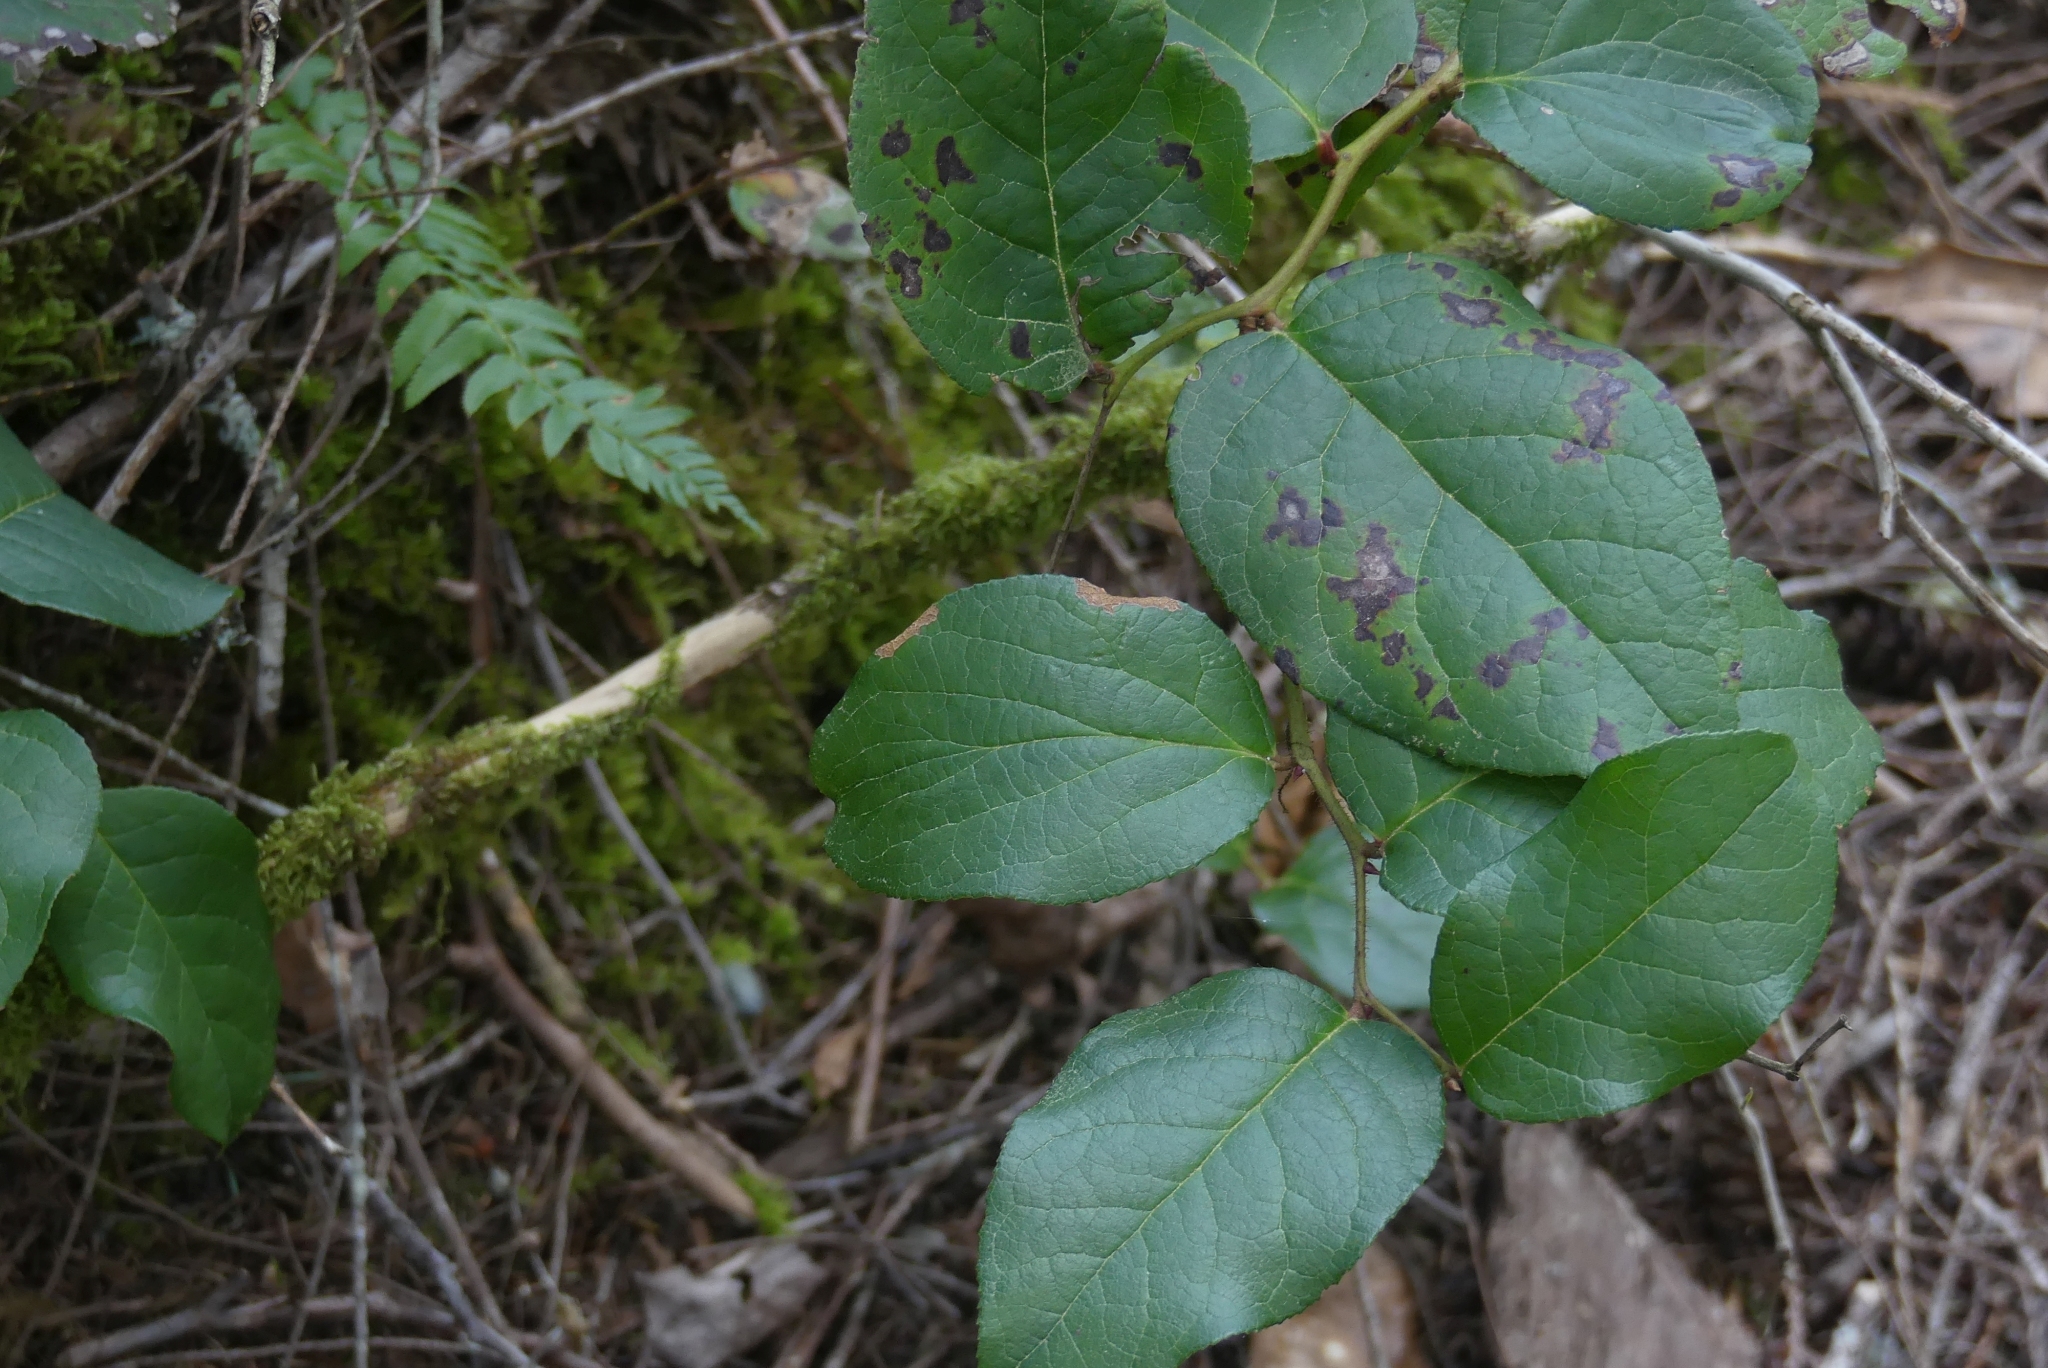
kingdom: Plantae
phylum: Tracheophyta
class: Magnoliopsida
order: Ericales
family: Ericaceae
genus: Gaultheria
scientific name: Gaultheria shallon
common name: Shallon
